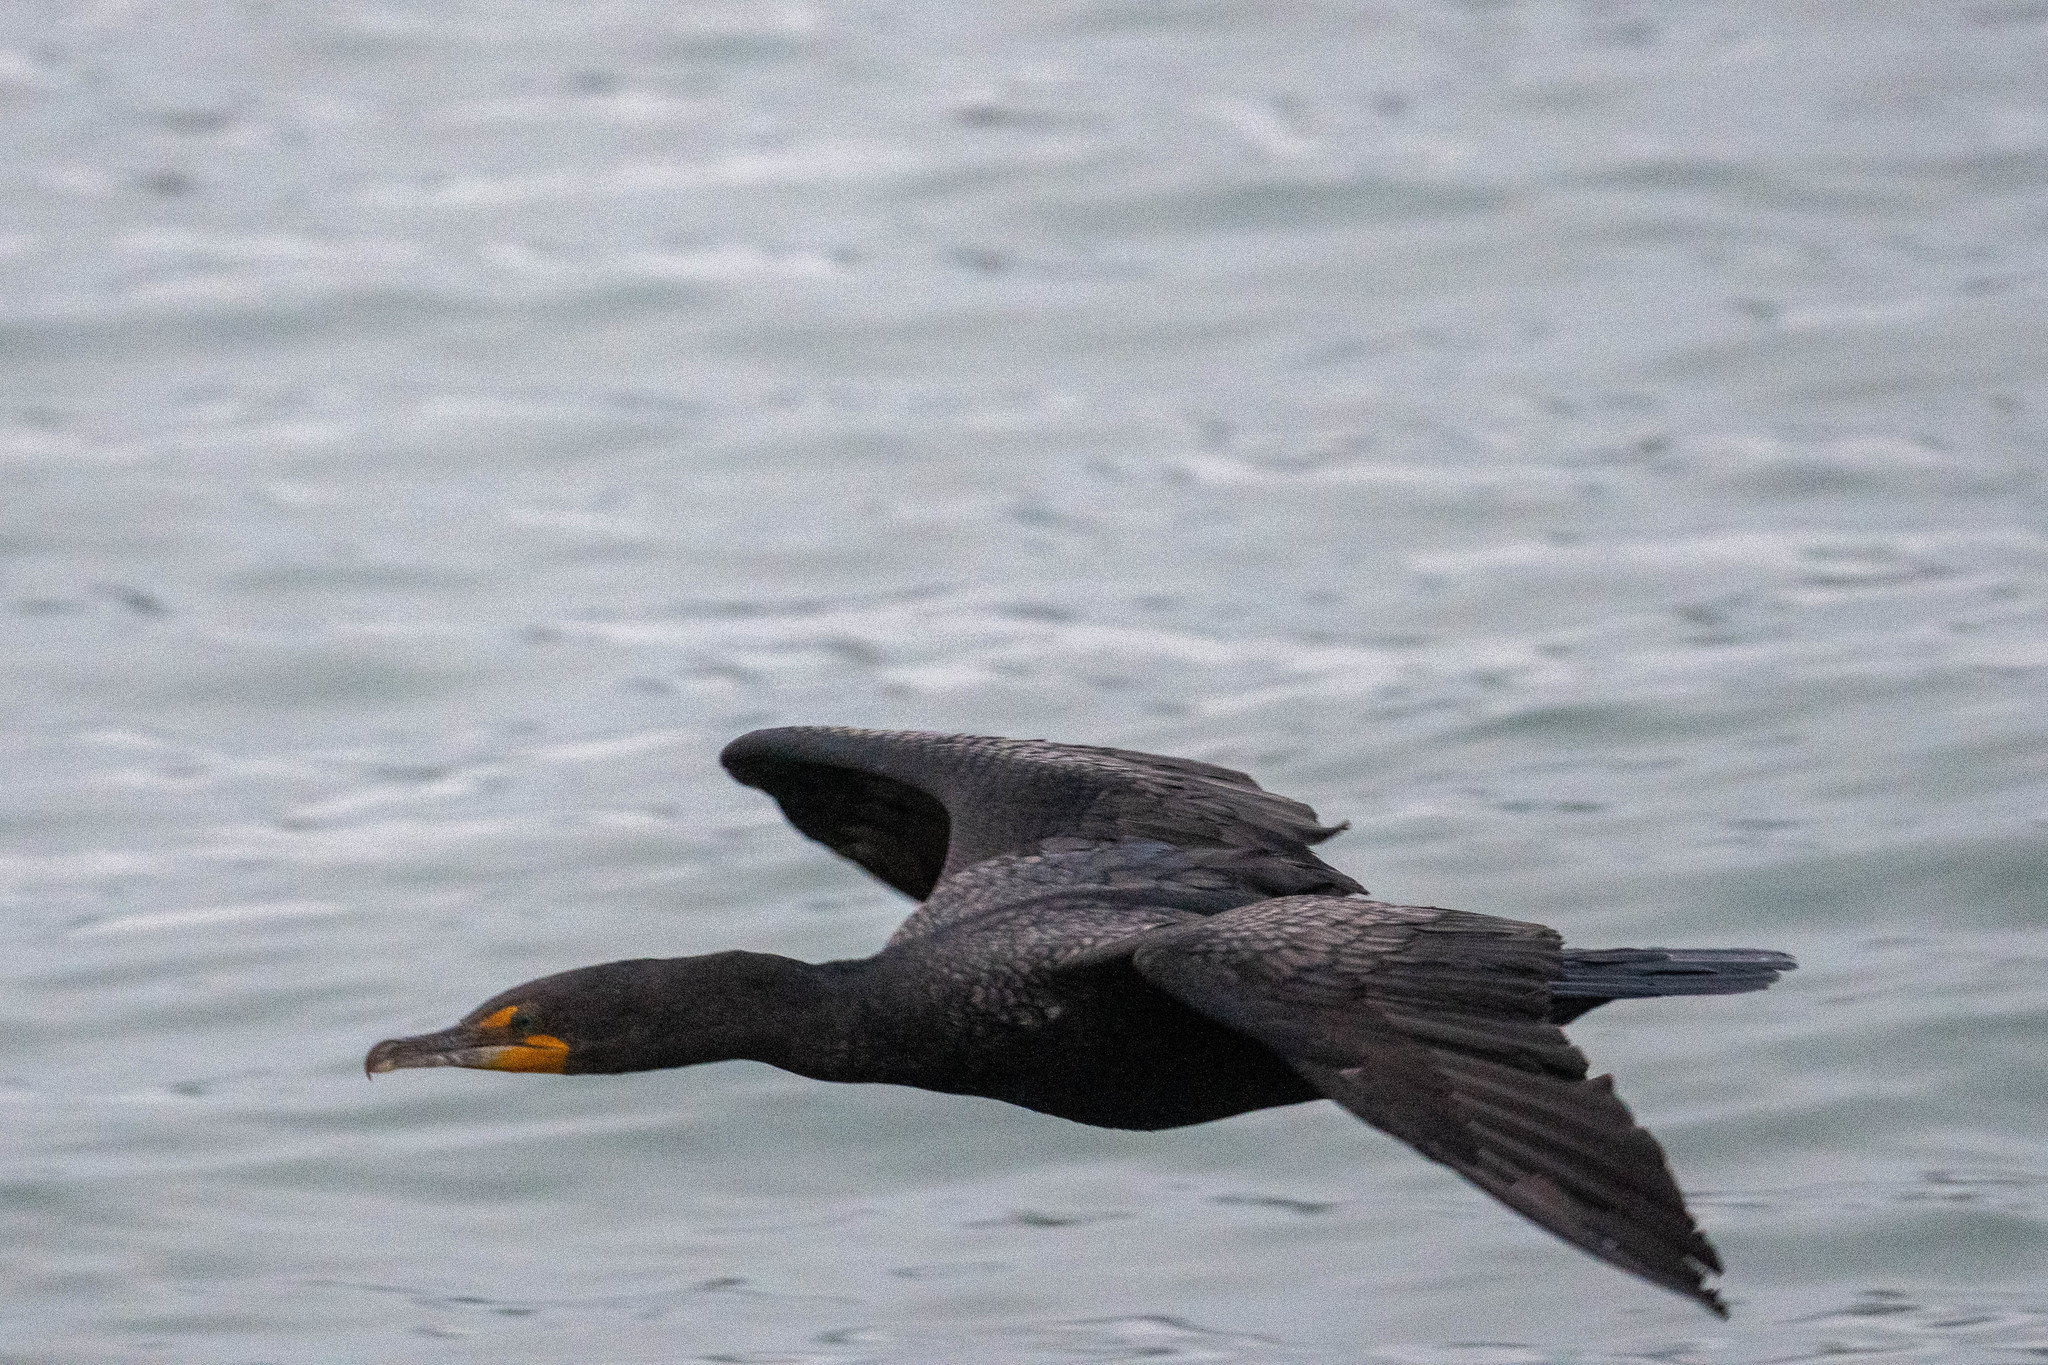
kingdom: Animalia
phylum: Chordata
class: Aves
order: Suliformes
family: Phalacrocoracidae
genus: Phalacrocorax
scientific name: Phalacrocorax auritus
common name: Double-crested cormorant
